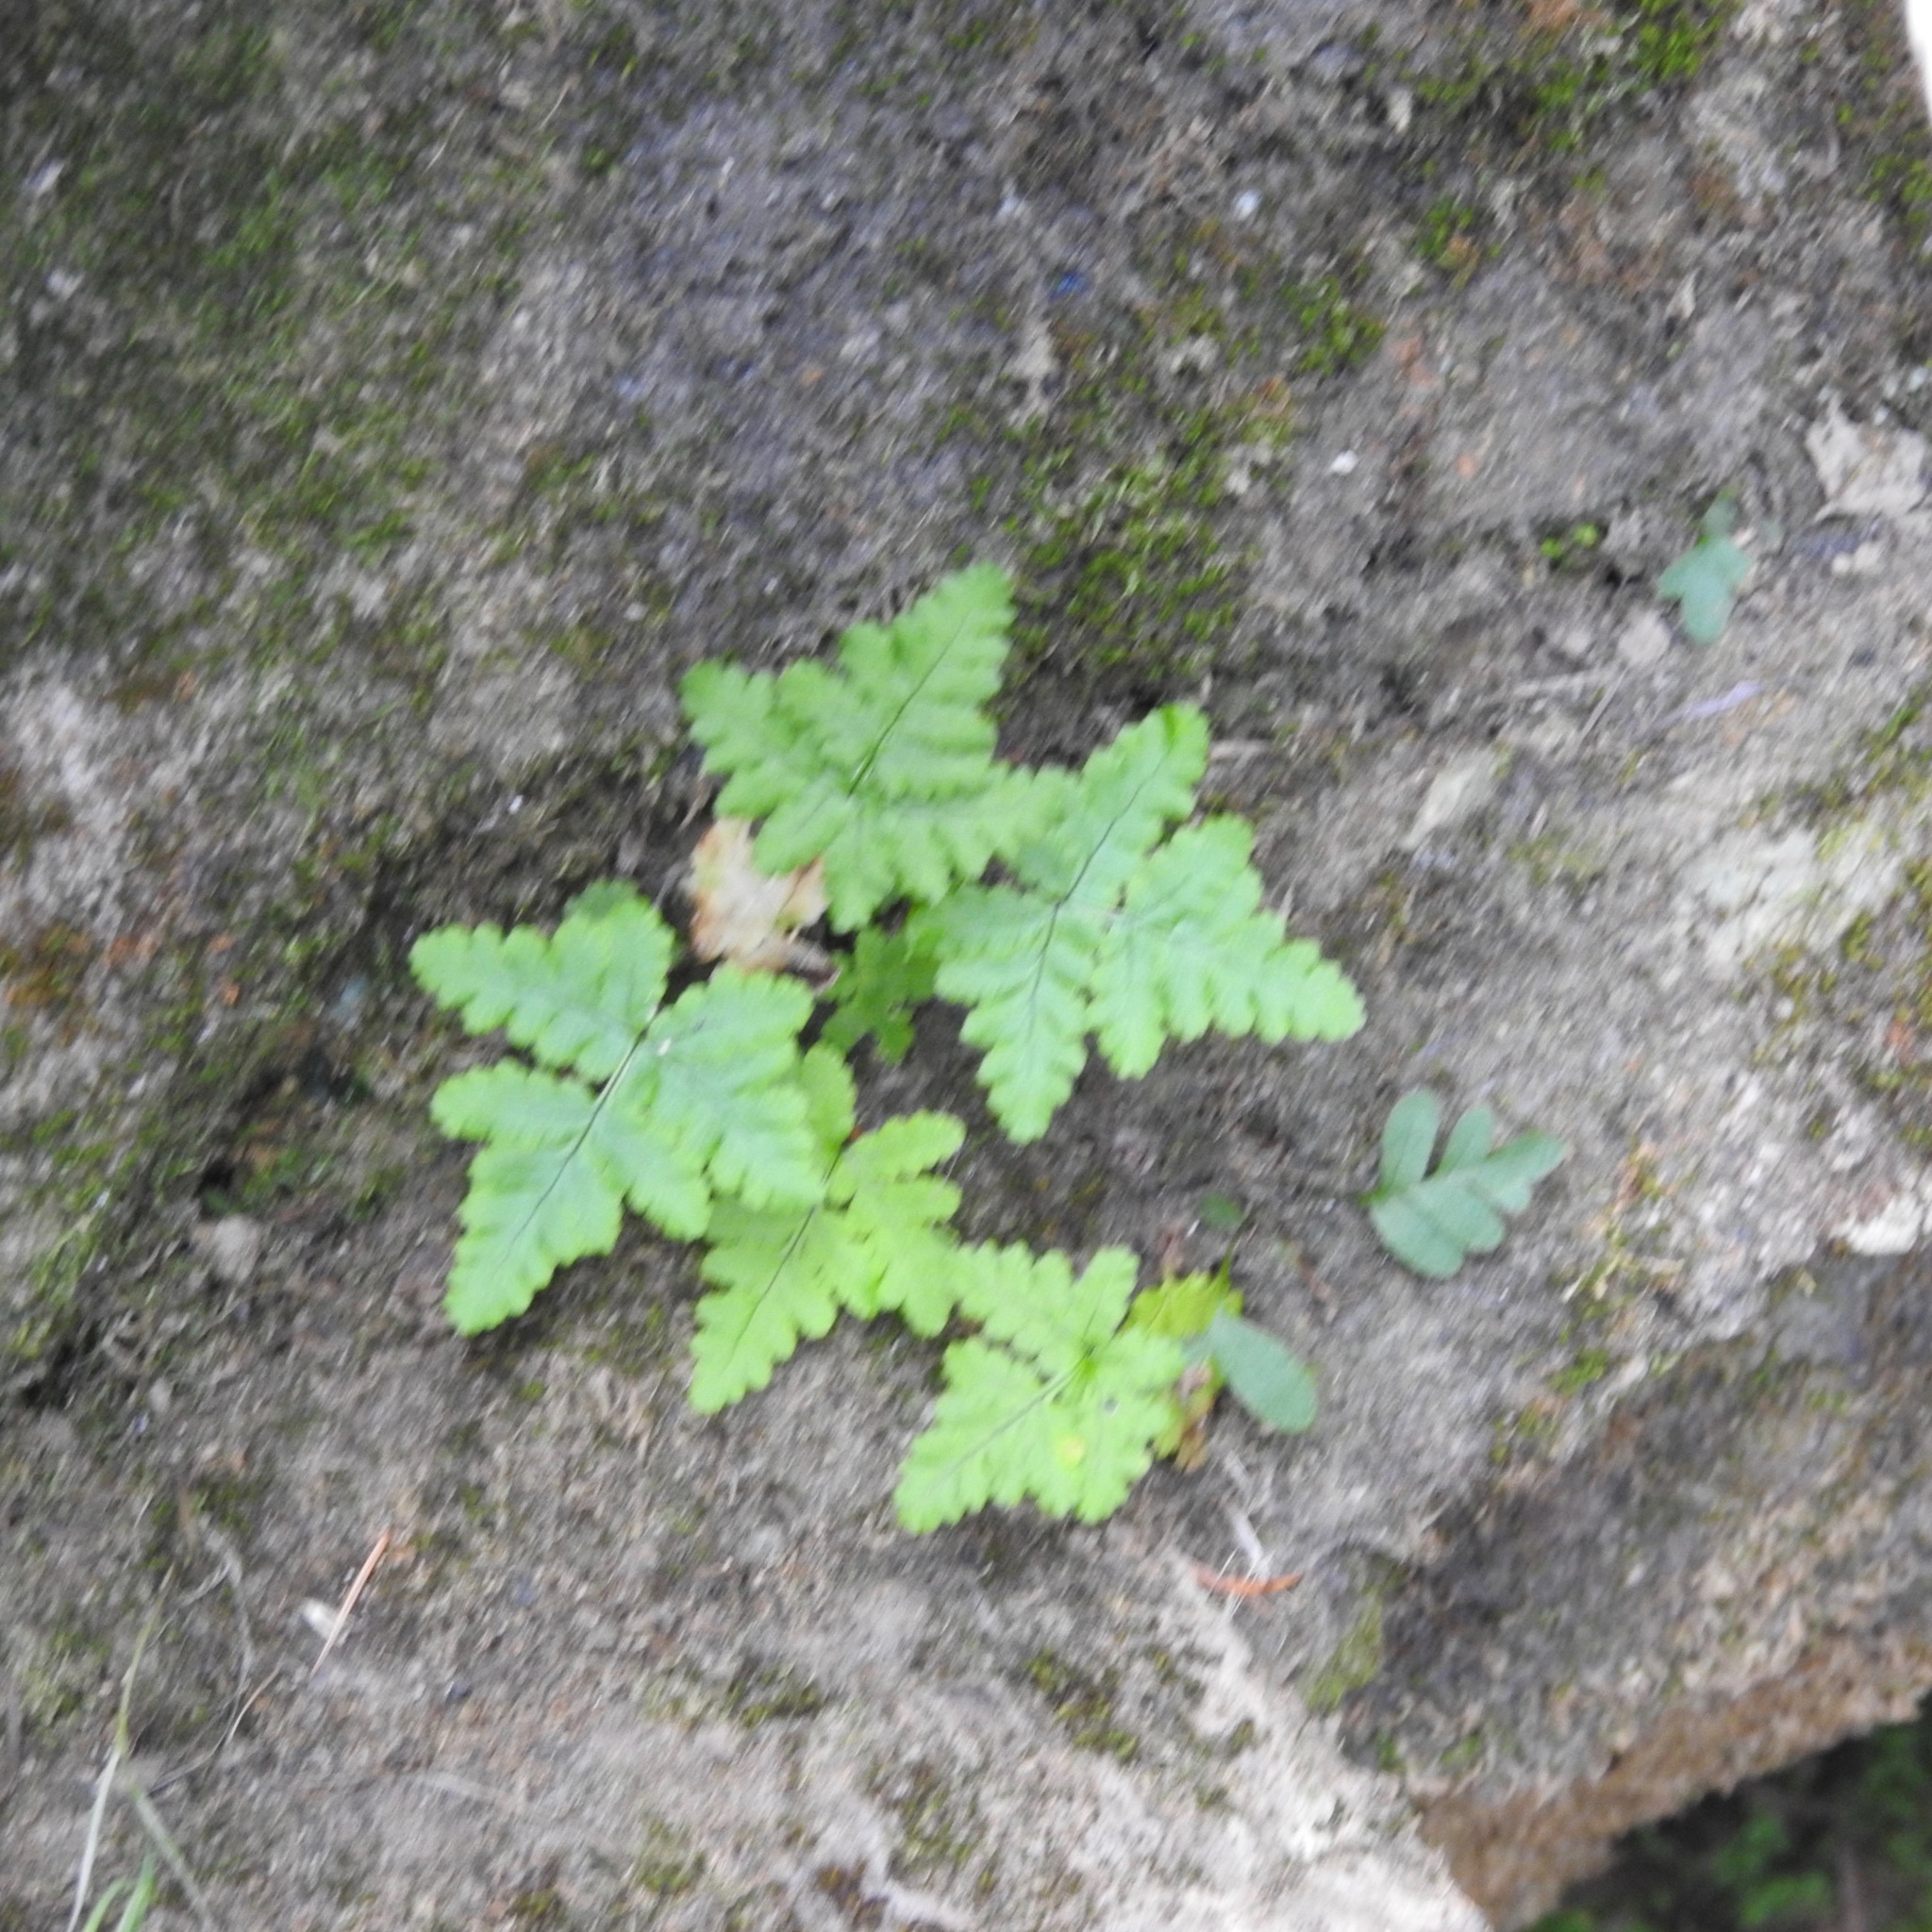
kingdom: Plantae
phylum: Tracheophyta
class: Polypodiopsida
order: Polypodiales
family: Pteridaceae
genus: Pentagramma
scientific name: Pentagramma triangularis
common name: Gold fern
